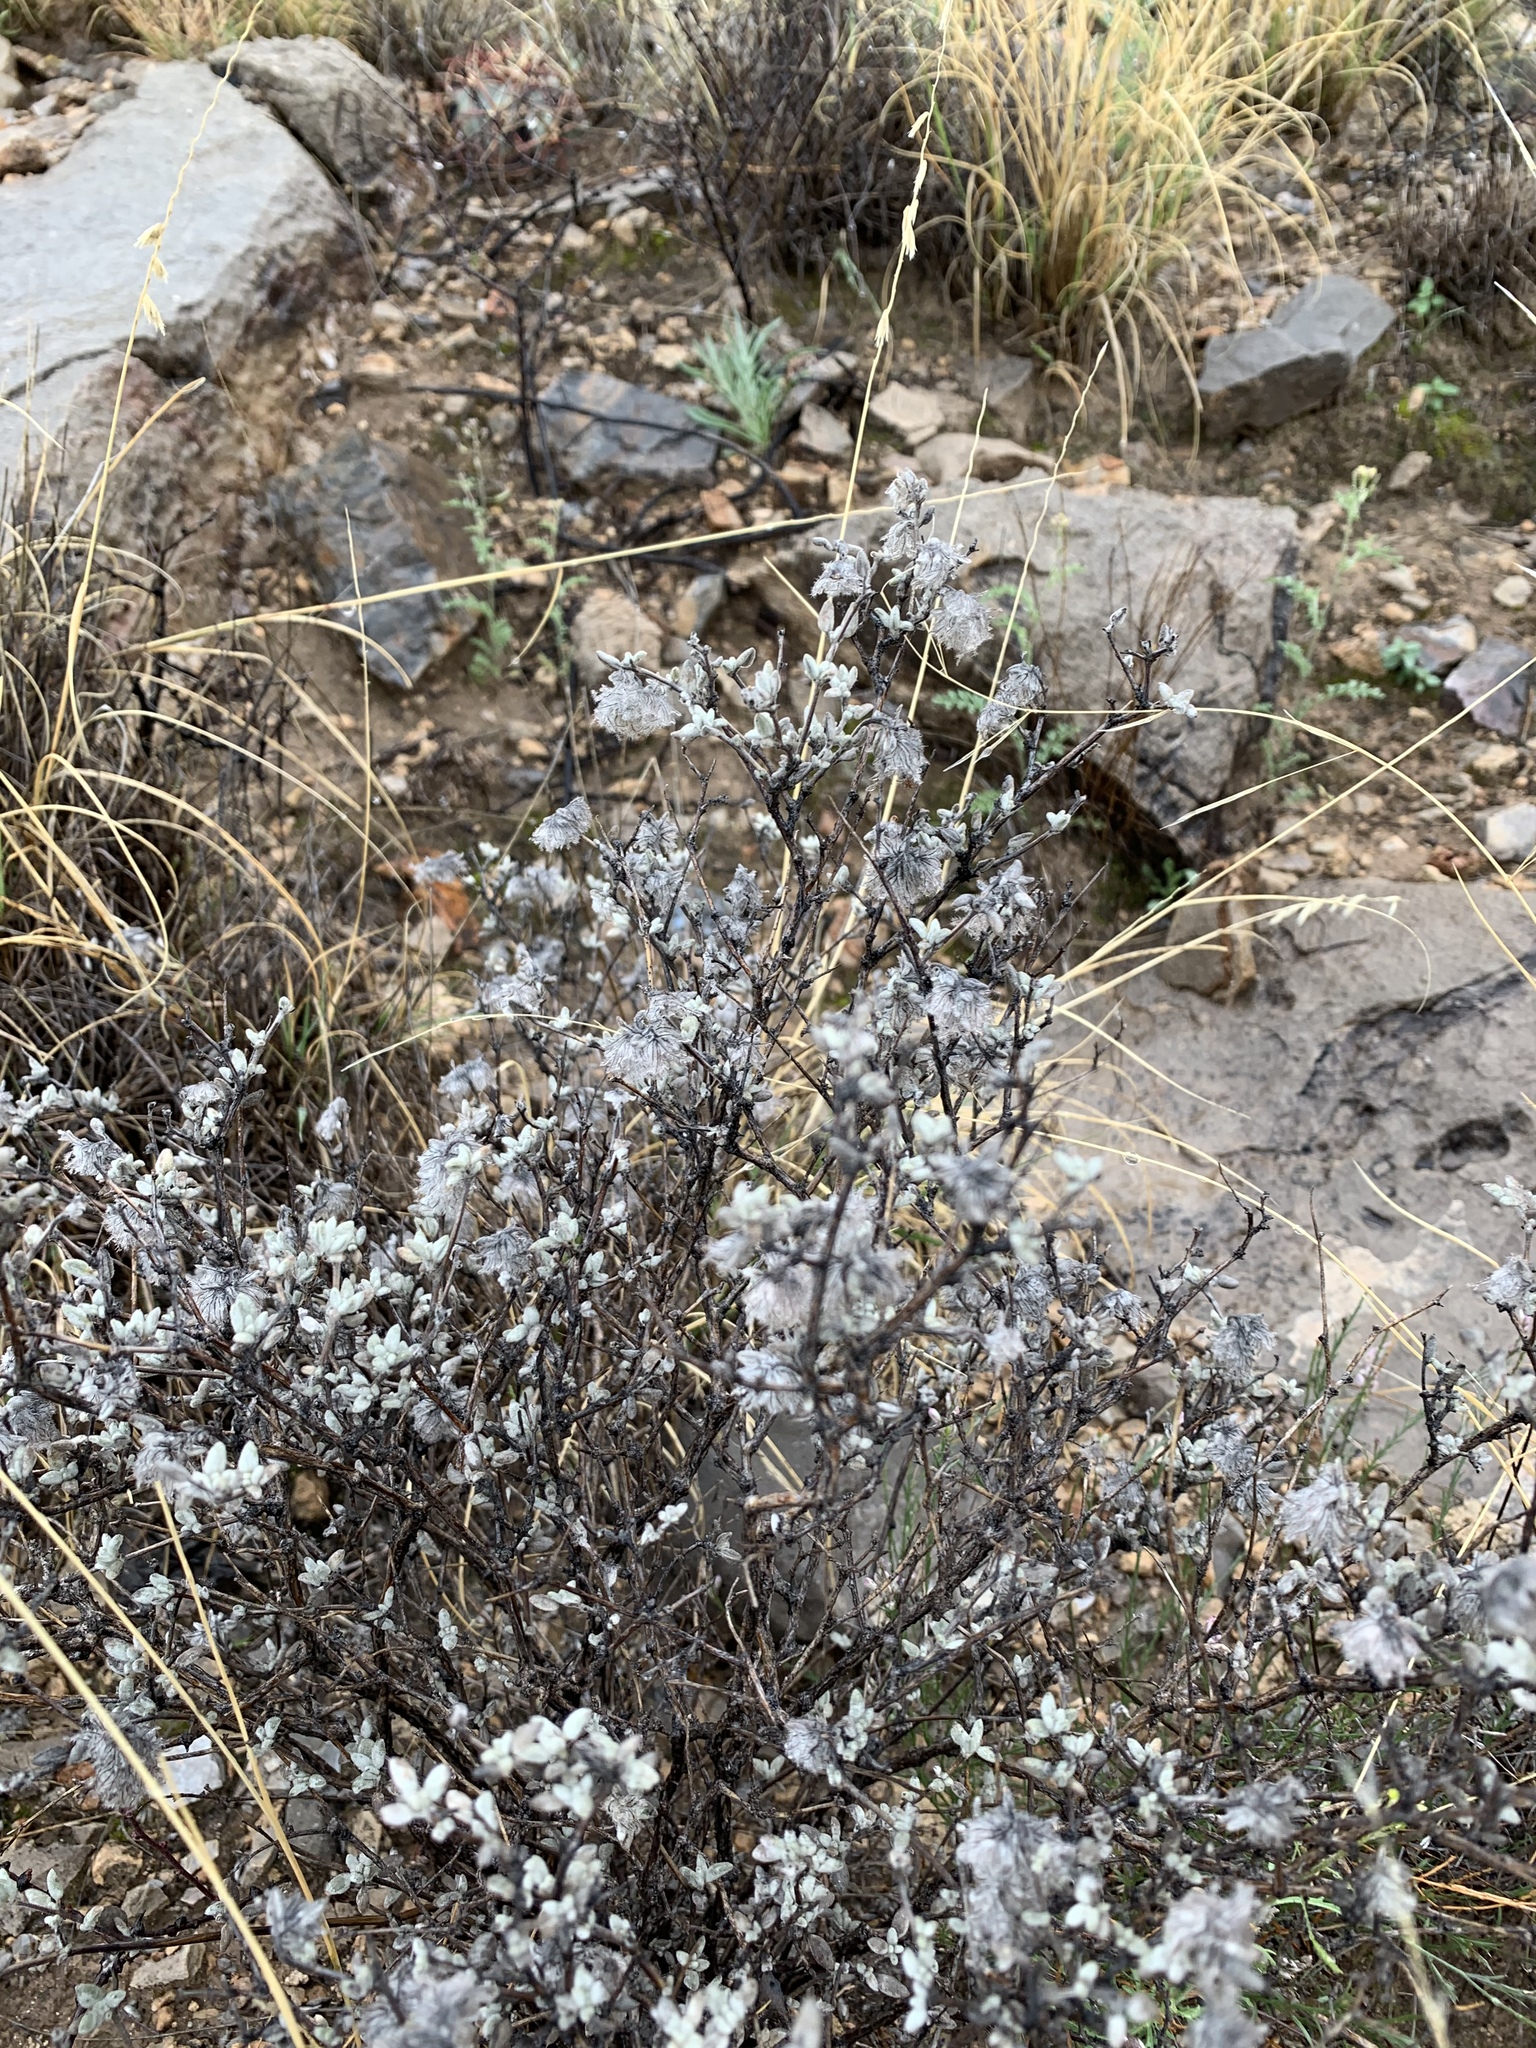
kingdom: Plantae
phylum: Tracheophyta
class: Magnoliopsida
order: Boraginales
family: Ehretiaceae
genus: Tiquilia
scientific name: Tiquilia greggii
